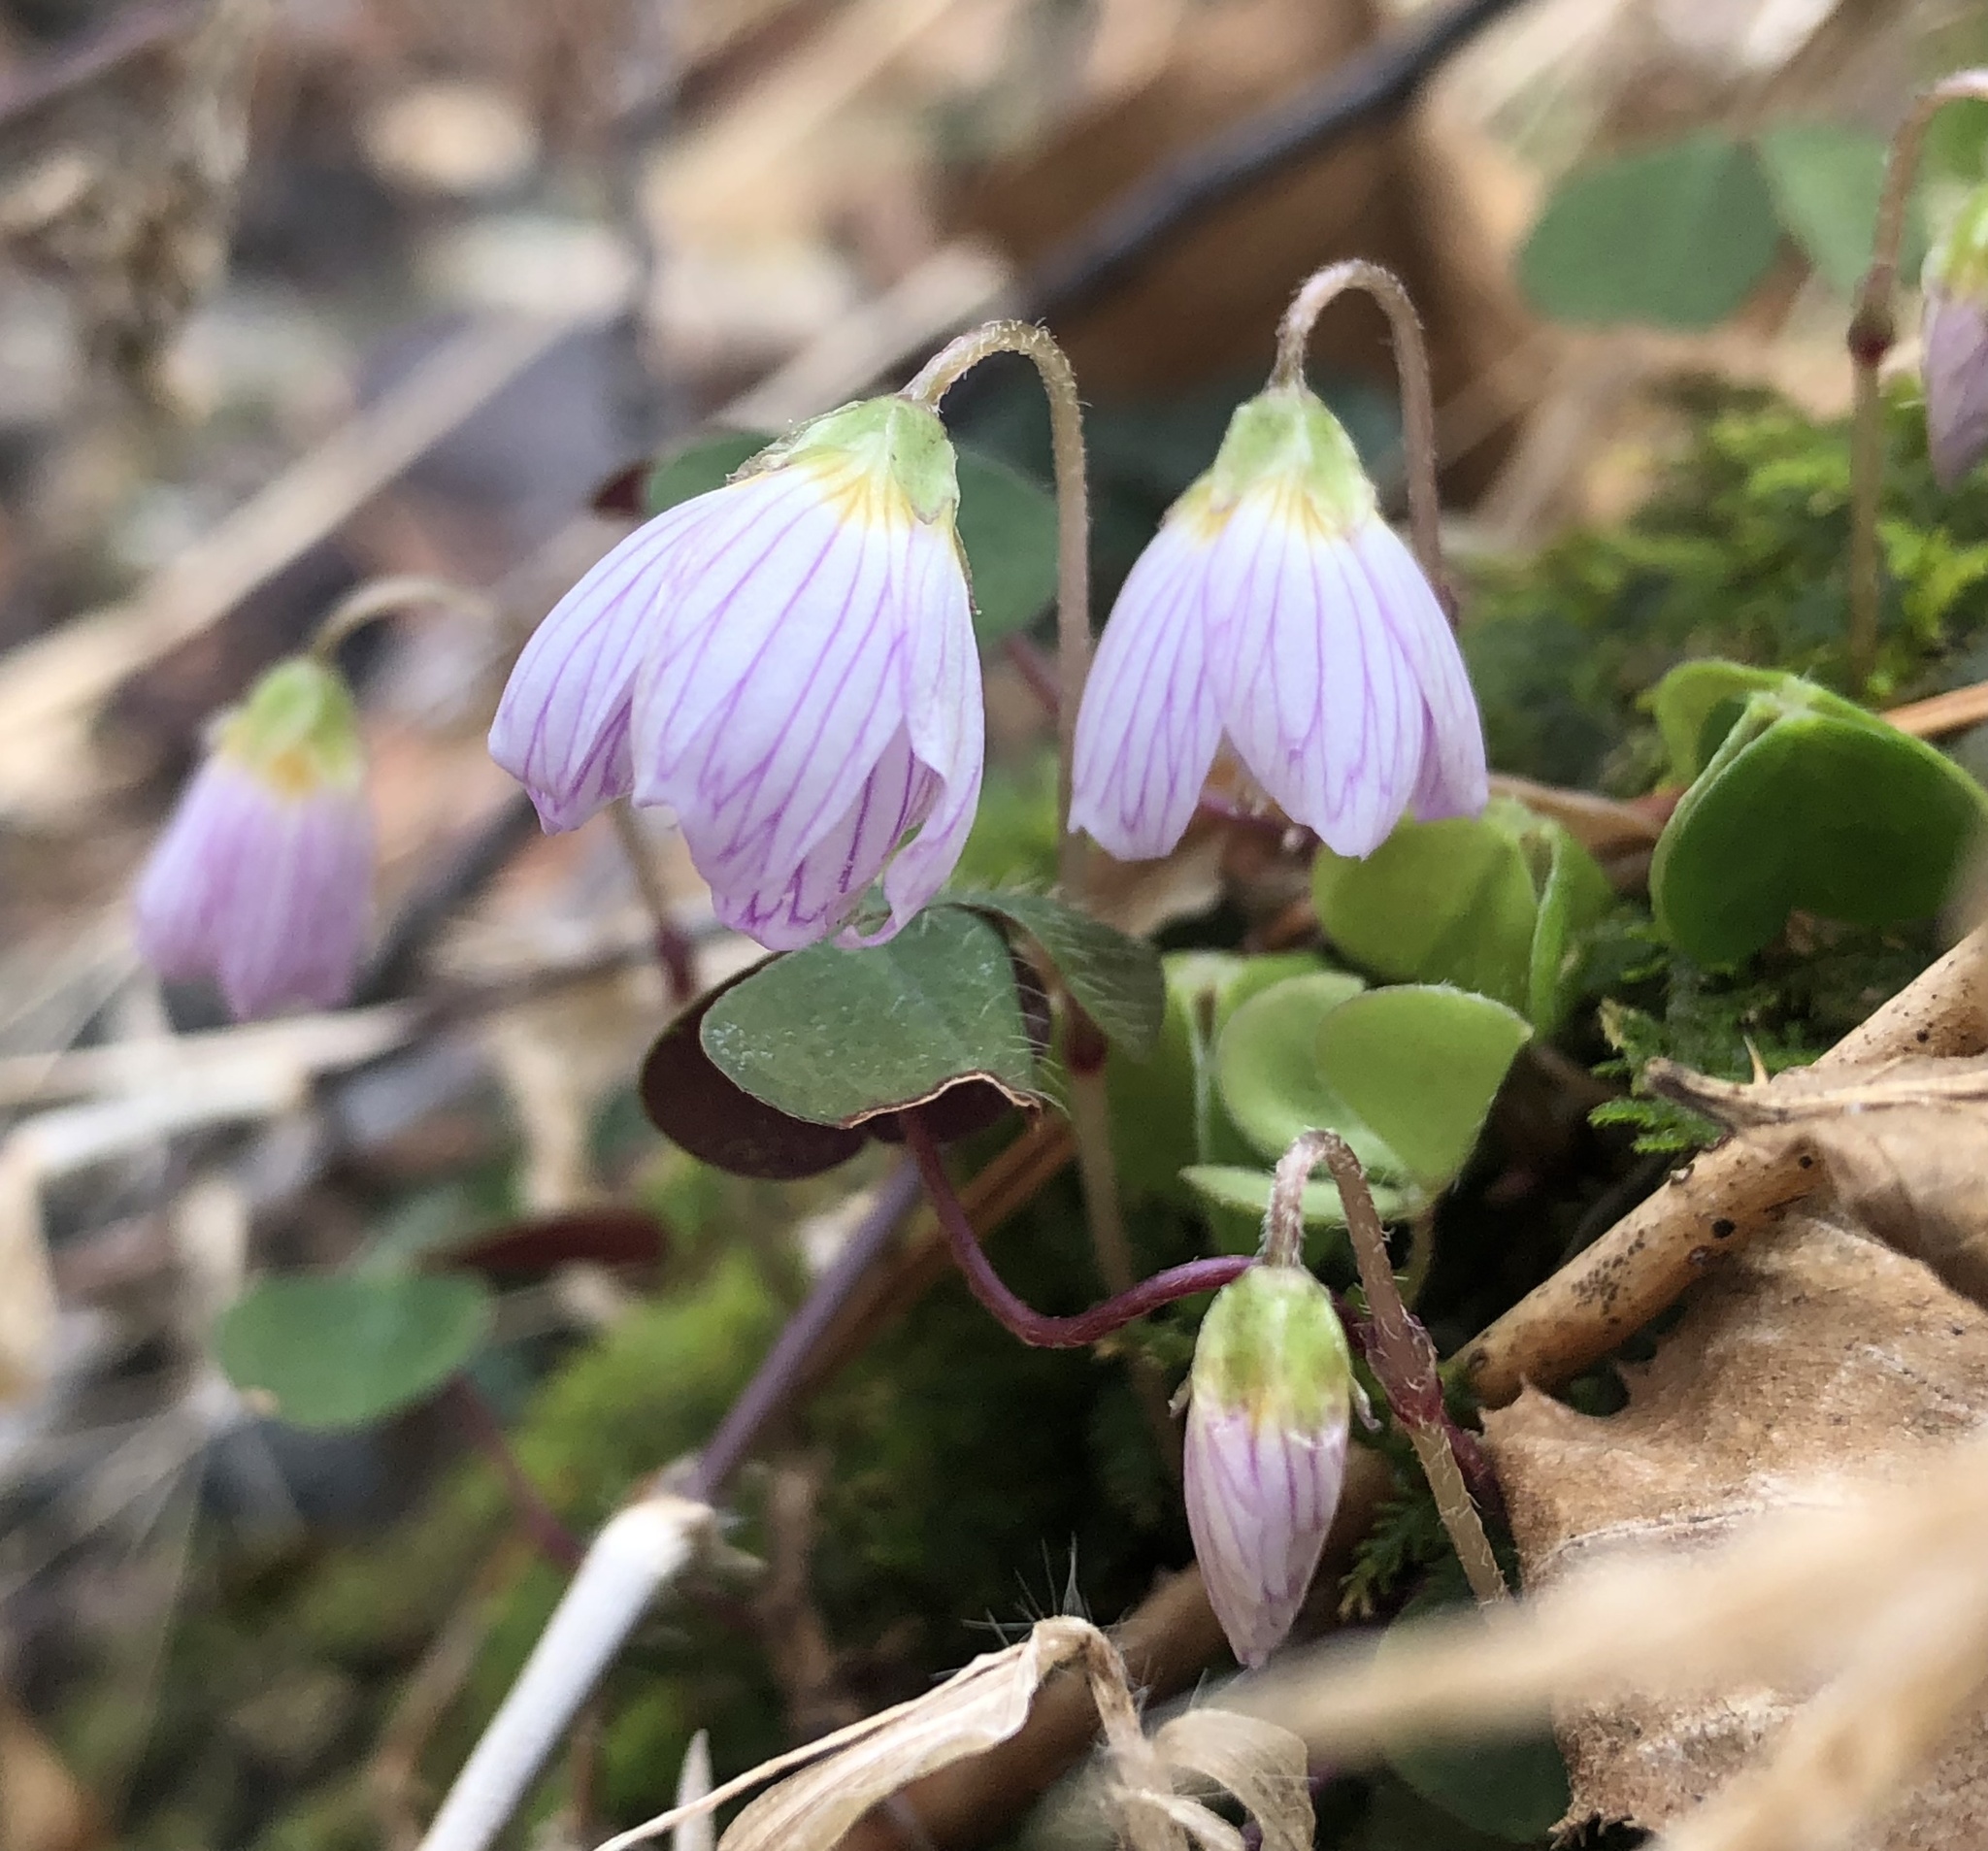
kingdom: Plantae
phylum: Tracheophyta
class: Magnoliopsida
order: Oxalidales
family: Oxalidaceae
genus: Oxalis
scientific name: Oxalis acetosella
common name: Wood-sorrel
